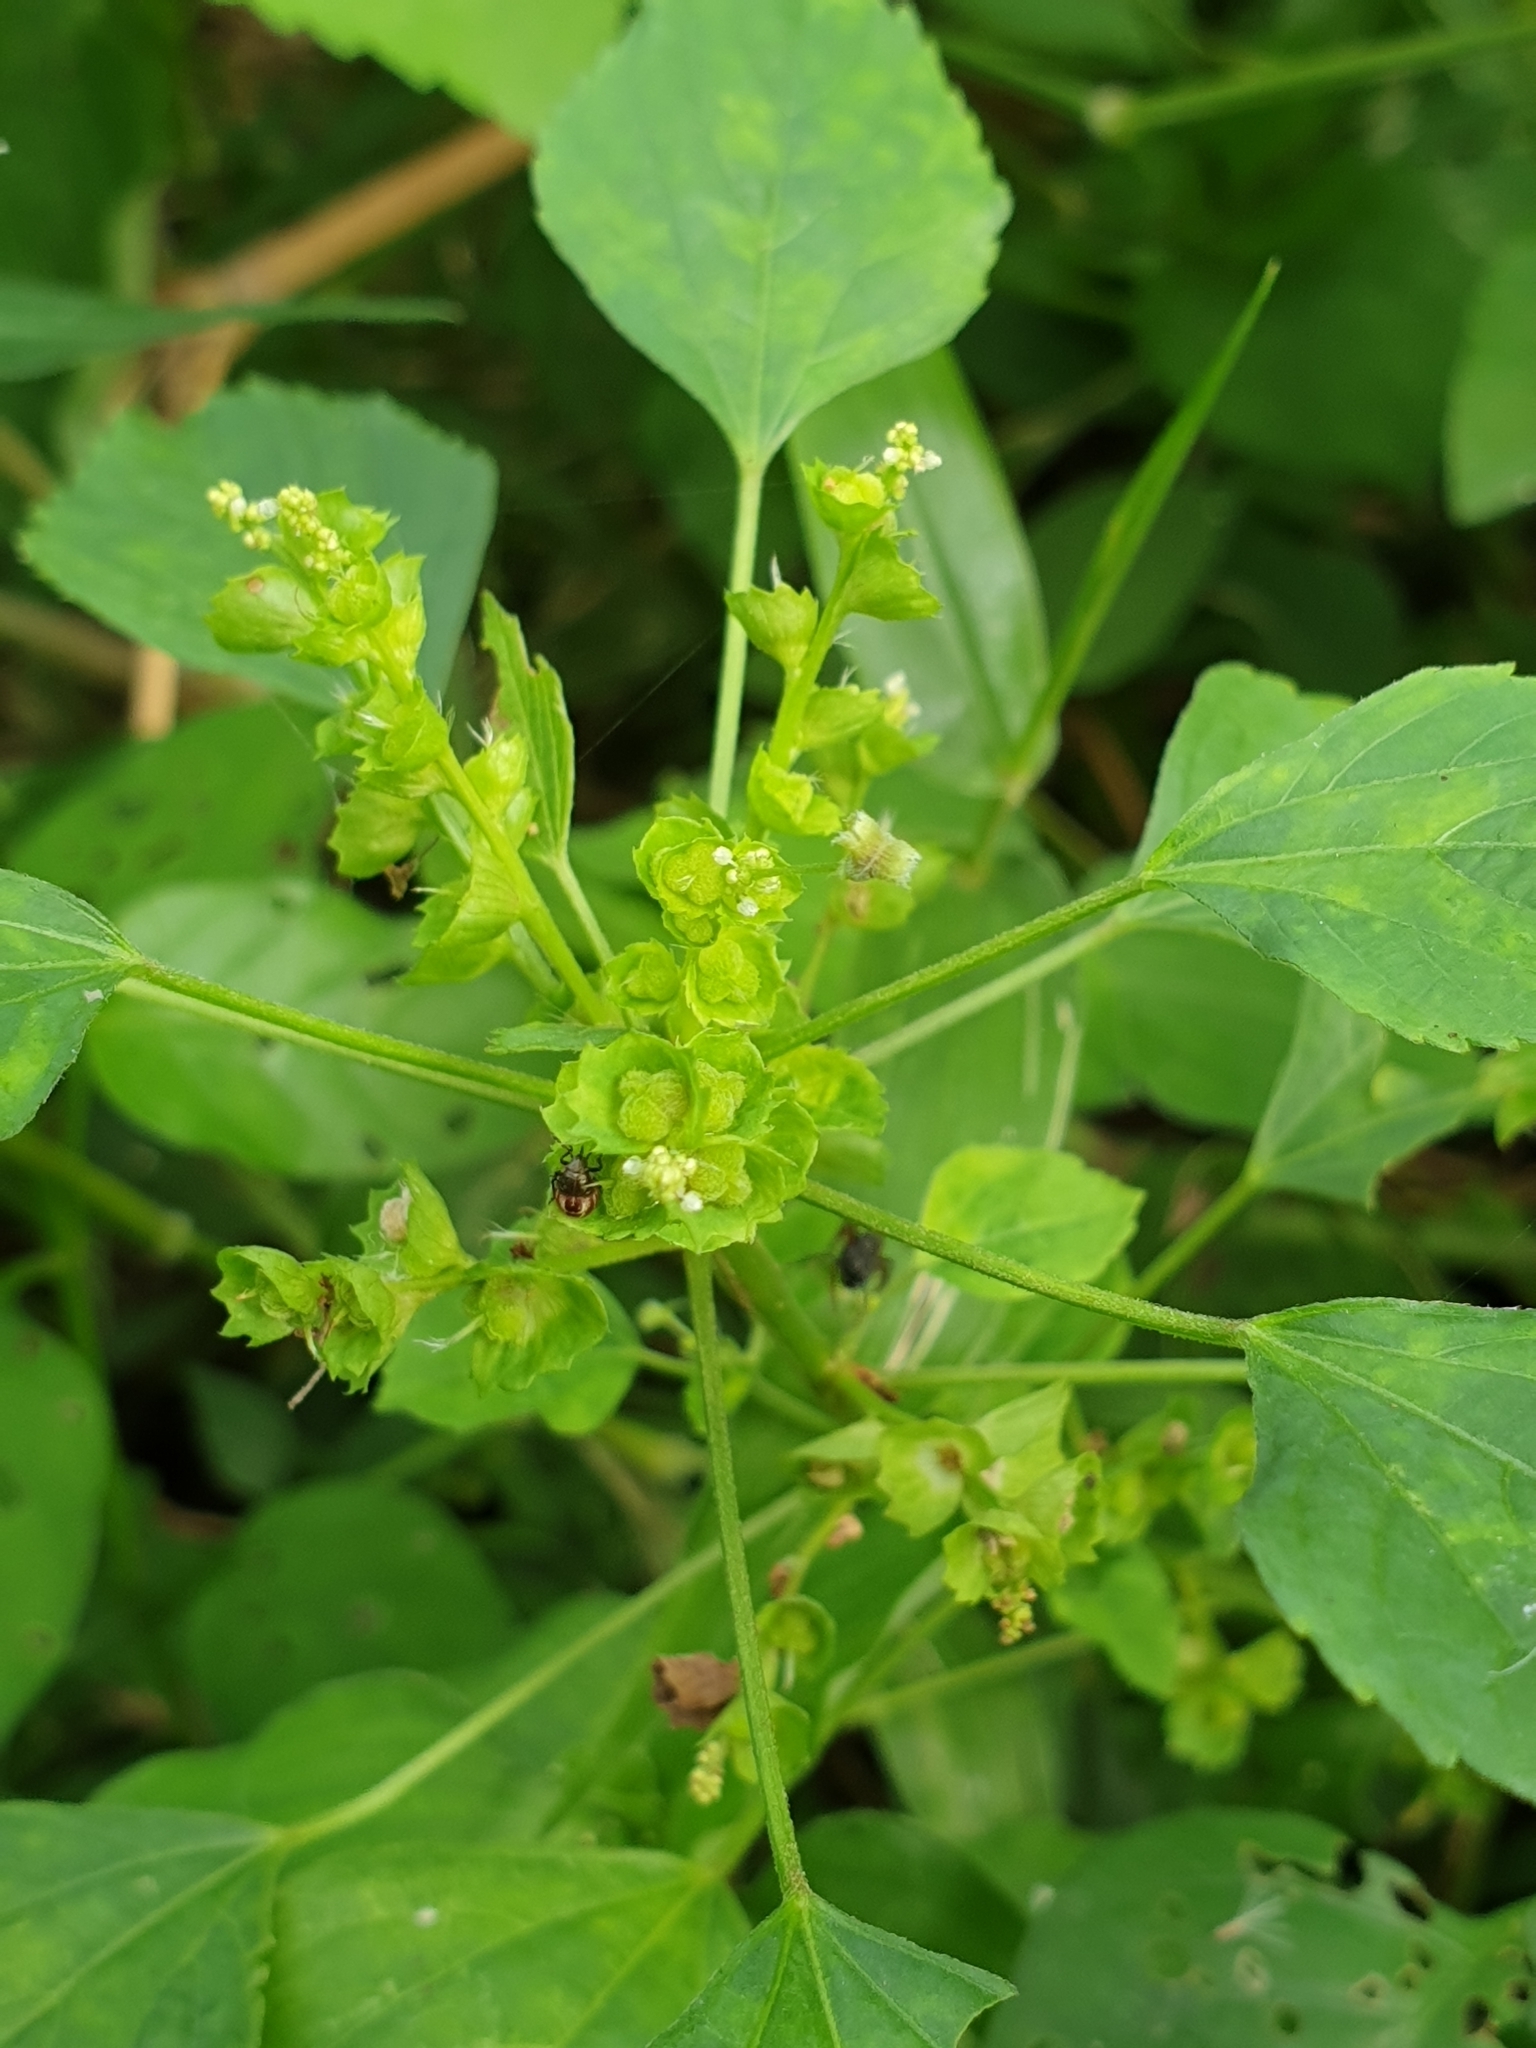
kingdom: Plantae
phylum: Tracheophyta
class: Magnoliopsida
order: Malpighiales
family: Euphorbiaceae
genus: Acalypha
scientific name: Acalypha indica
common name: Indian acalypha
